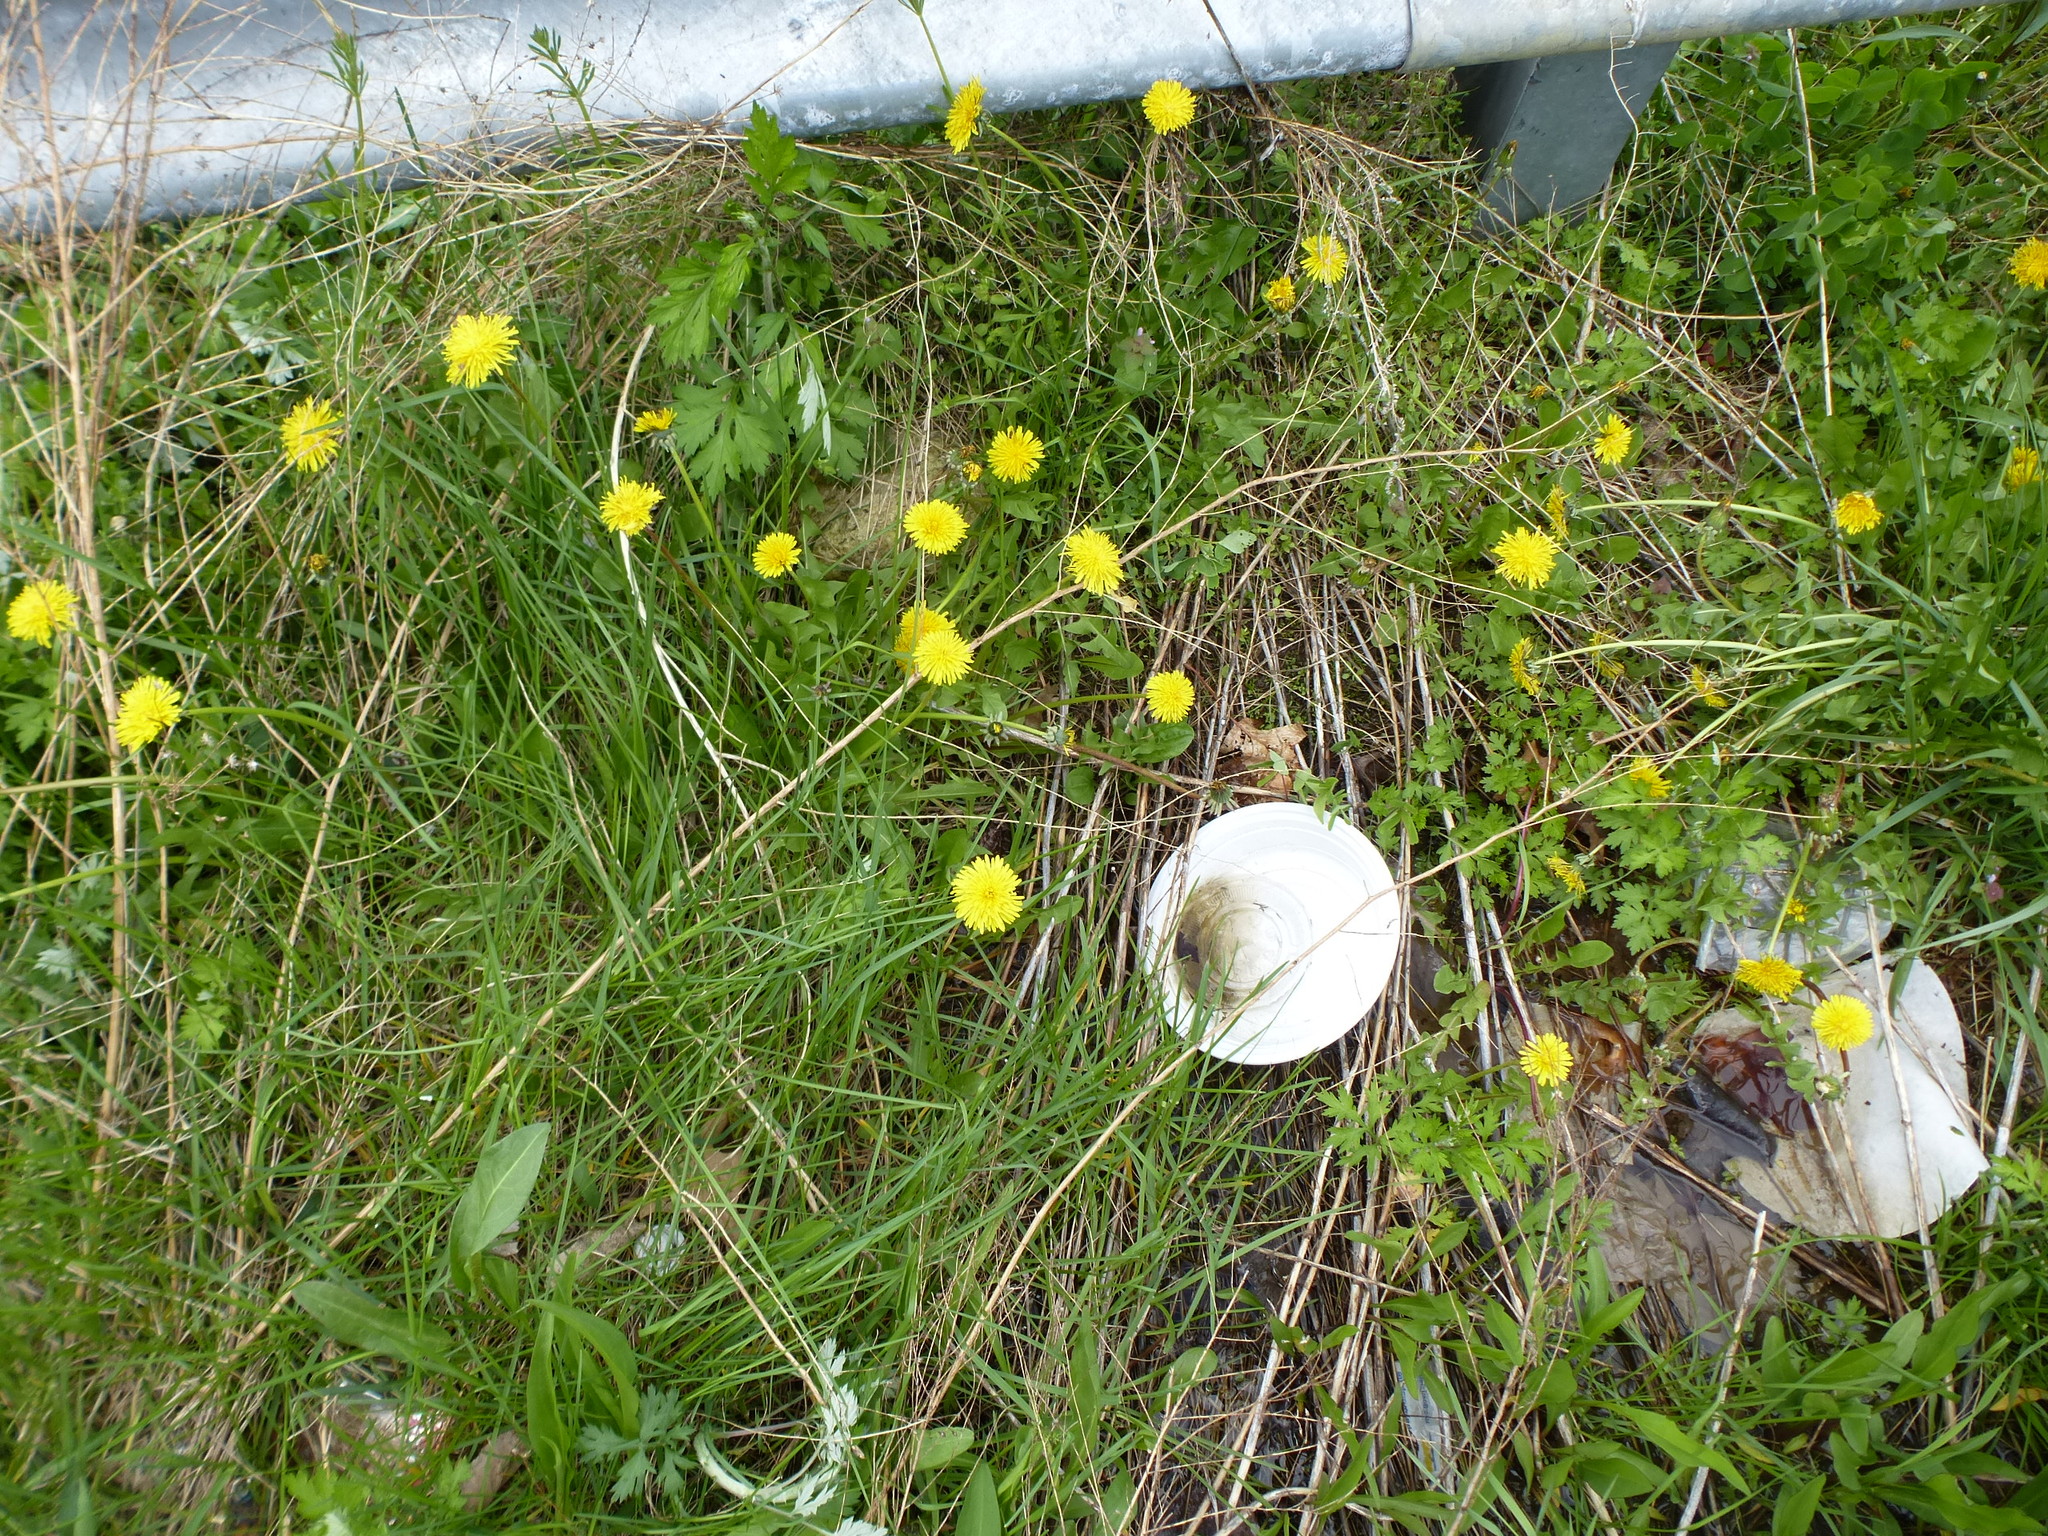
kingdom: Plantae
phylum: Tracheophyta
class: Magnoliopsida
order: Asterales
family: Asteraceae
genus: Taraxacum
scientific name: Taraxacum
